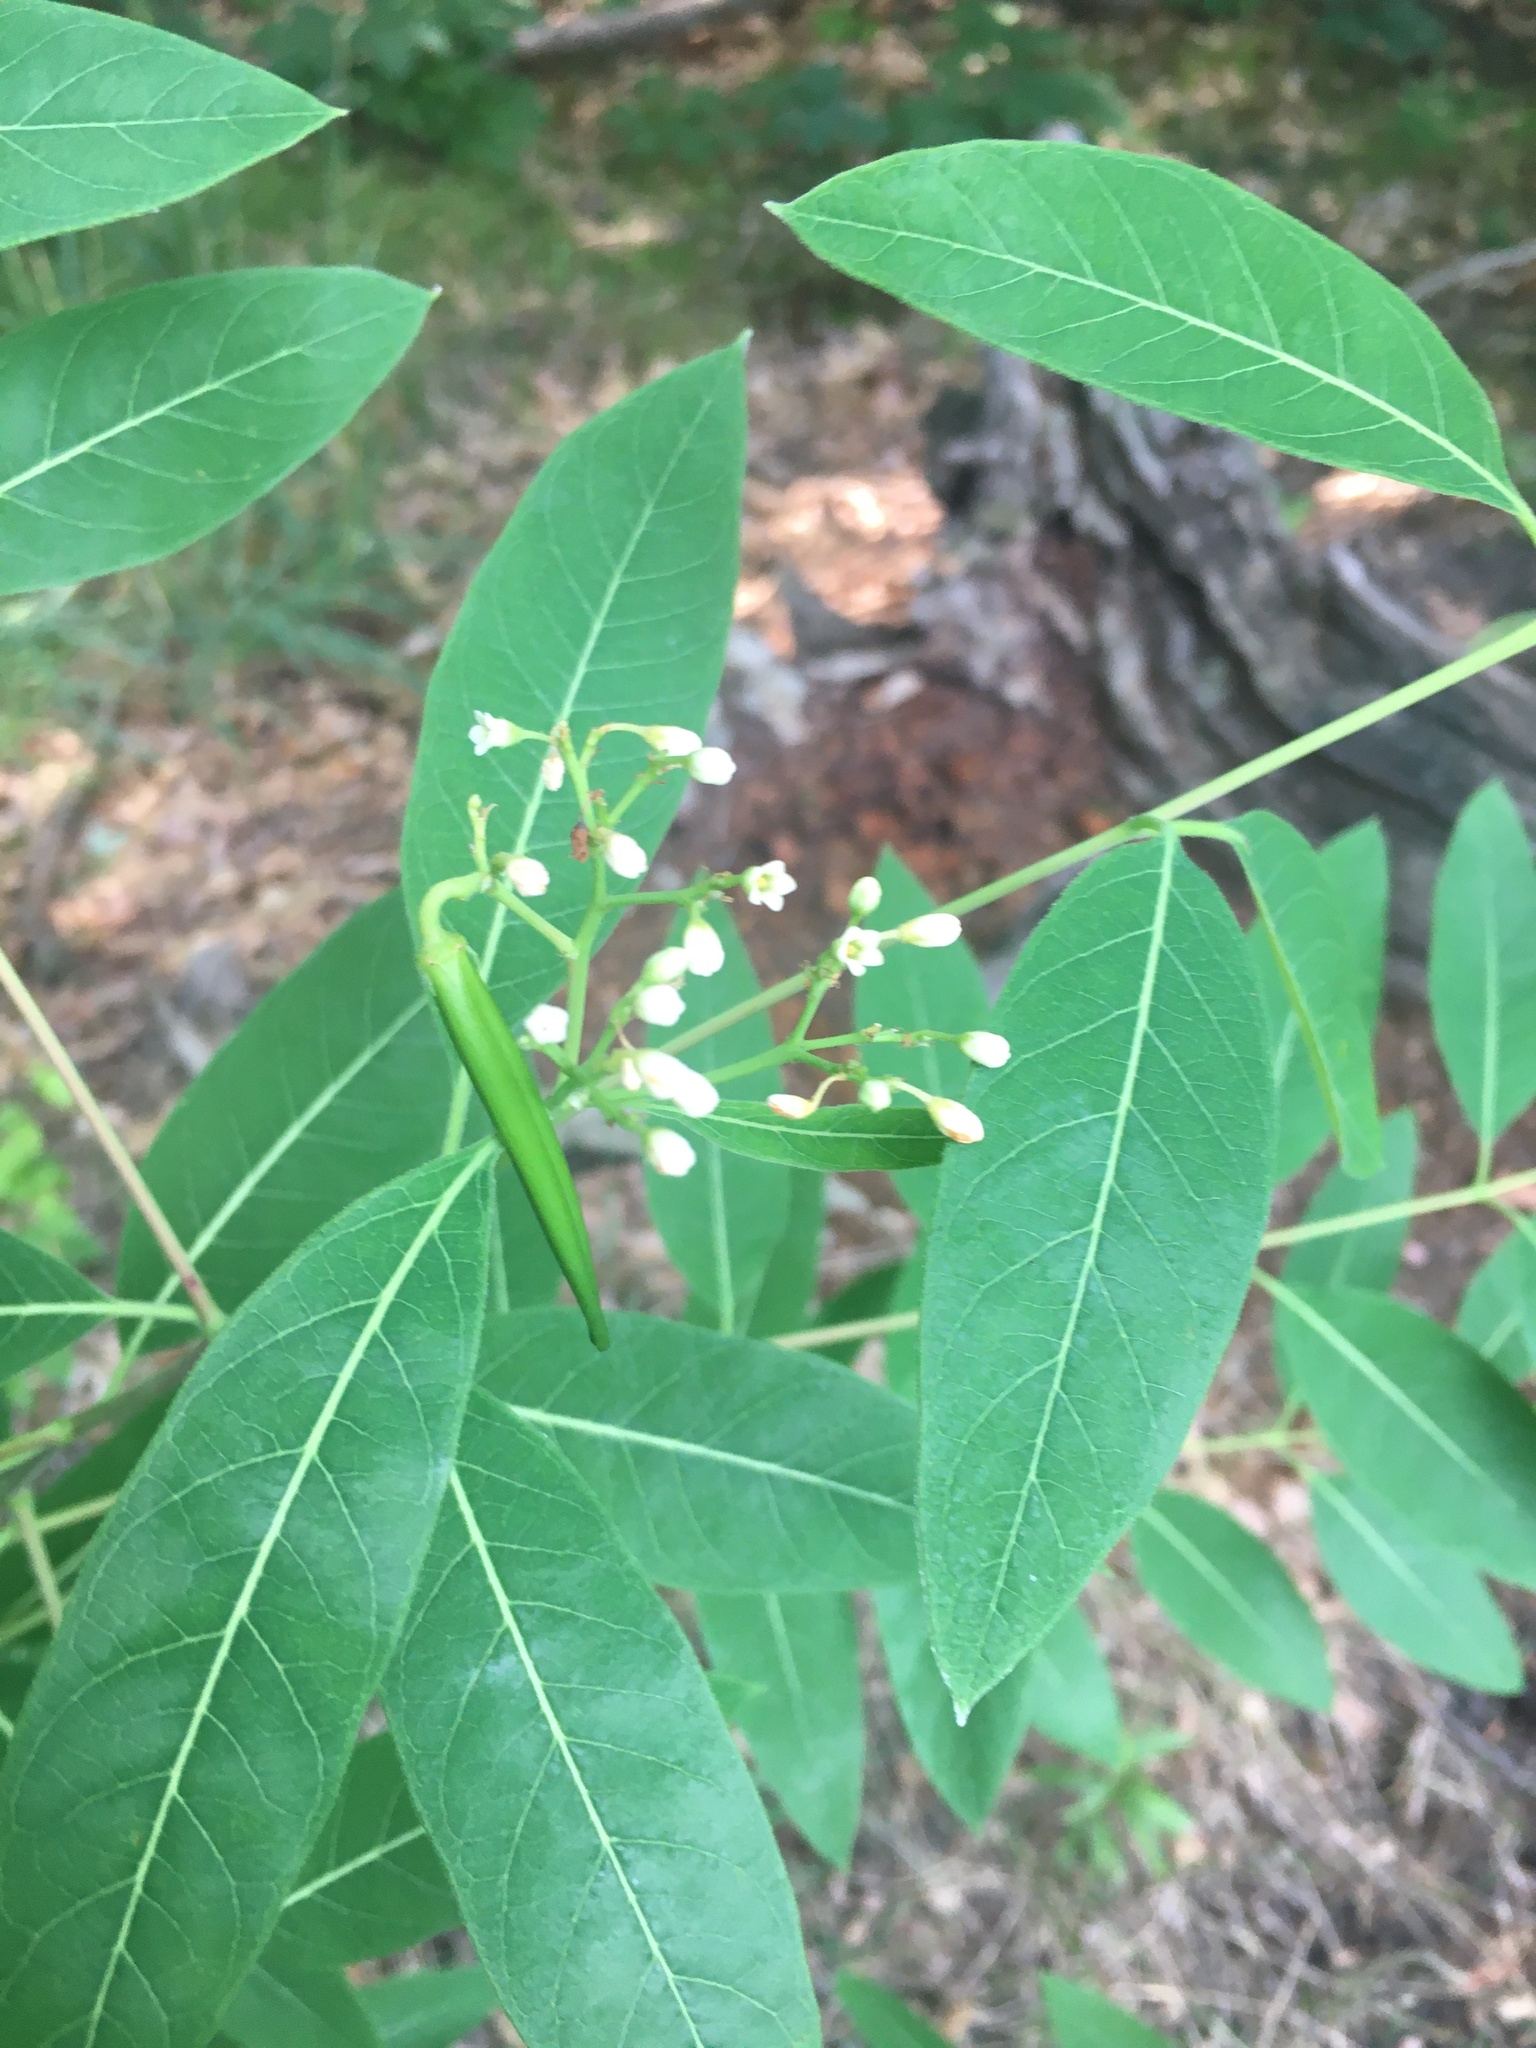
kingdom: Plantae
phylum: Tracheophyta
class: Magnoliopsida
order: Gentianales
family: Apocynaceae
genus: Apocynum
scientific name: Apocynum cannabinum
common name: Hemp dogbane
